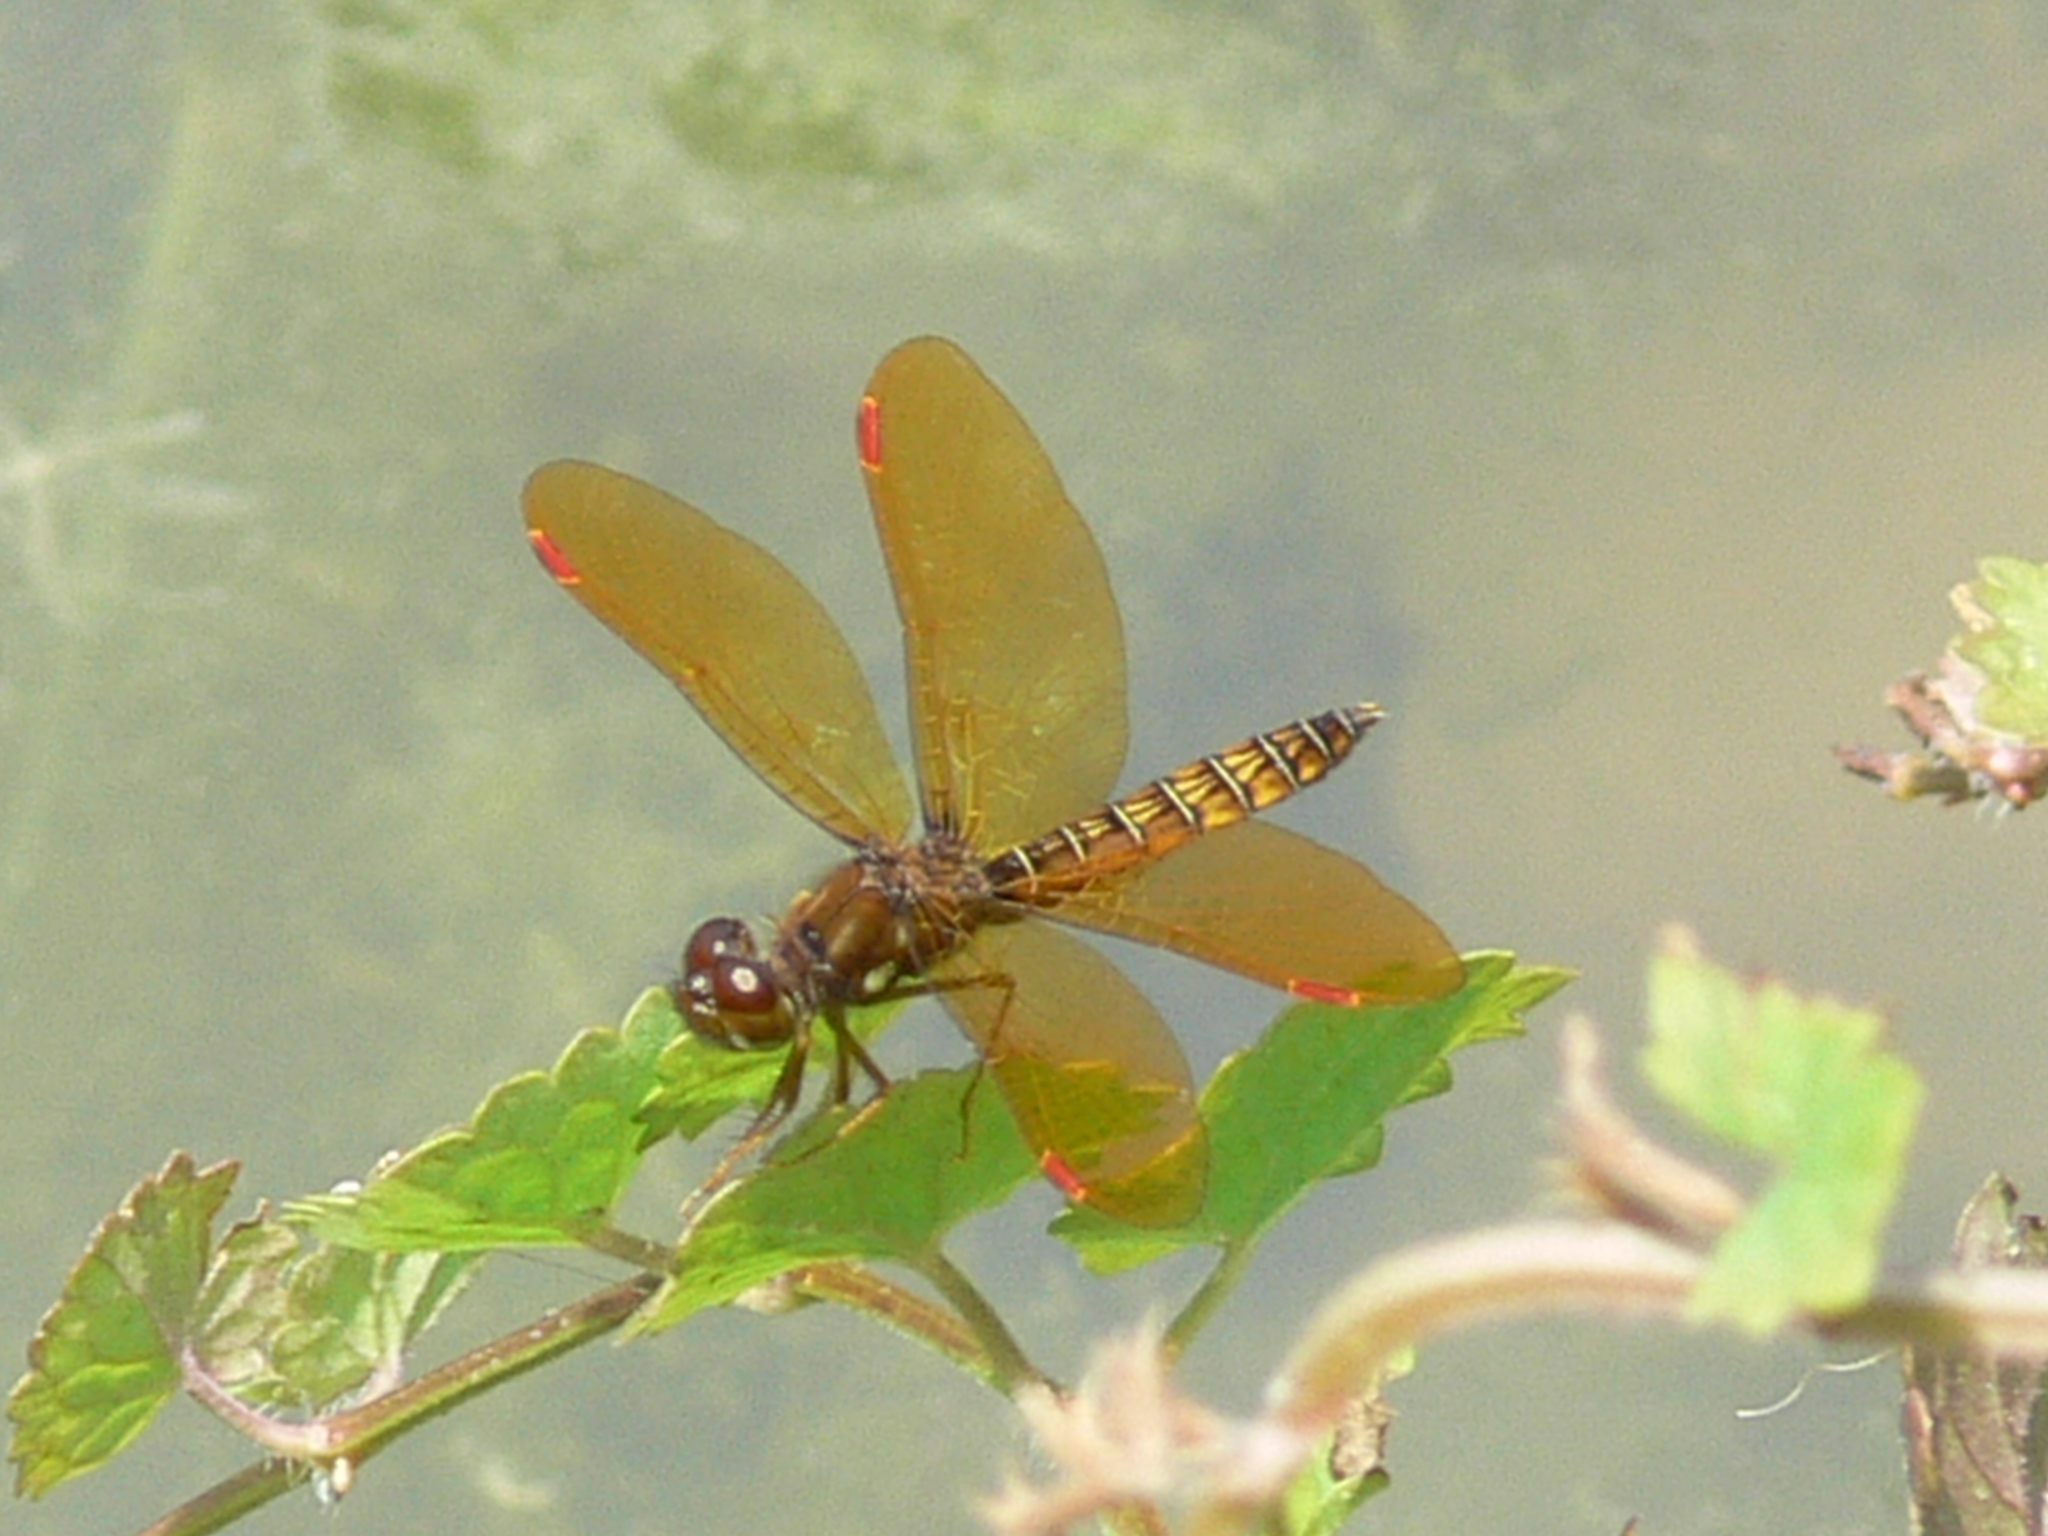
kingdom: Animalia
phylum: Arthropoda
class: Insecta
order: Odonata
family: Libellulidae
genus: Perithemis
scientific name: Perithemis tenera
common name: Eastern amberwing
